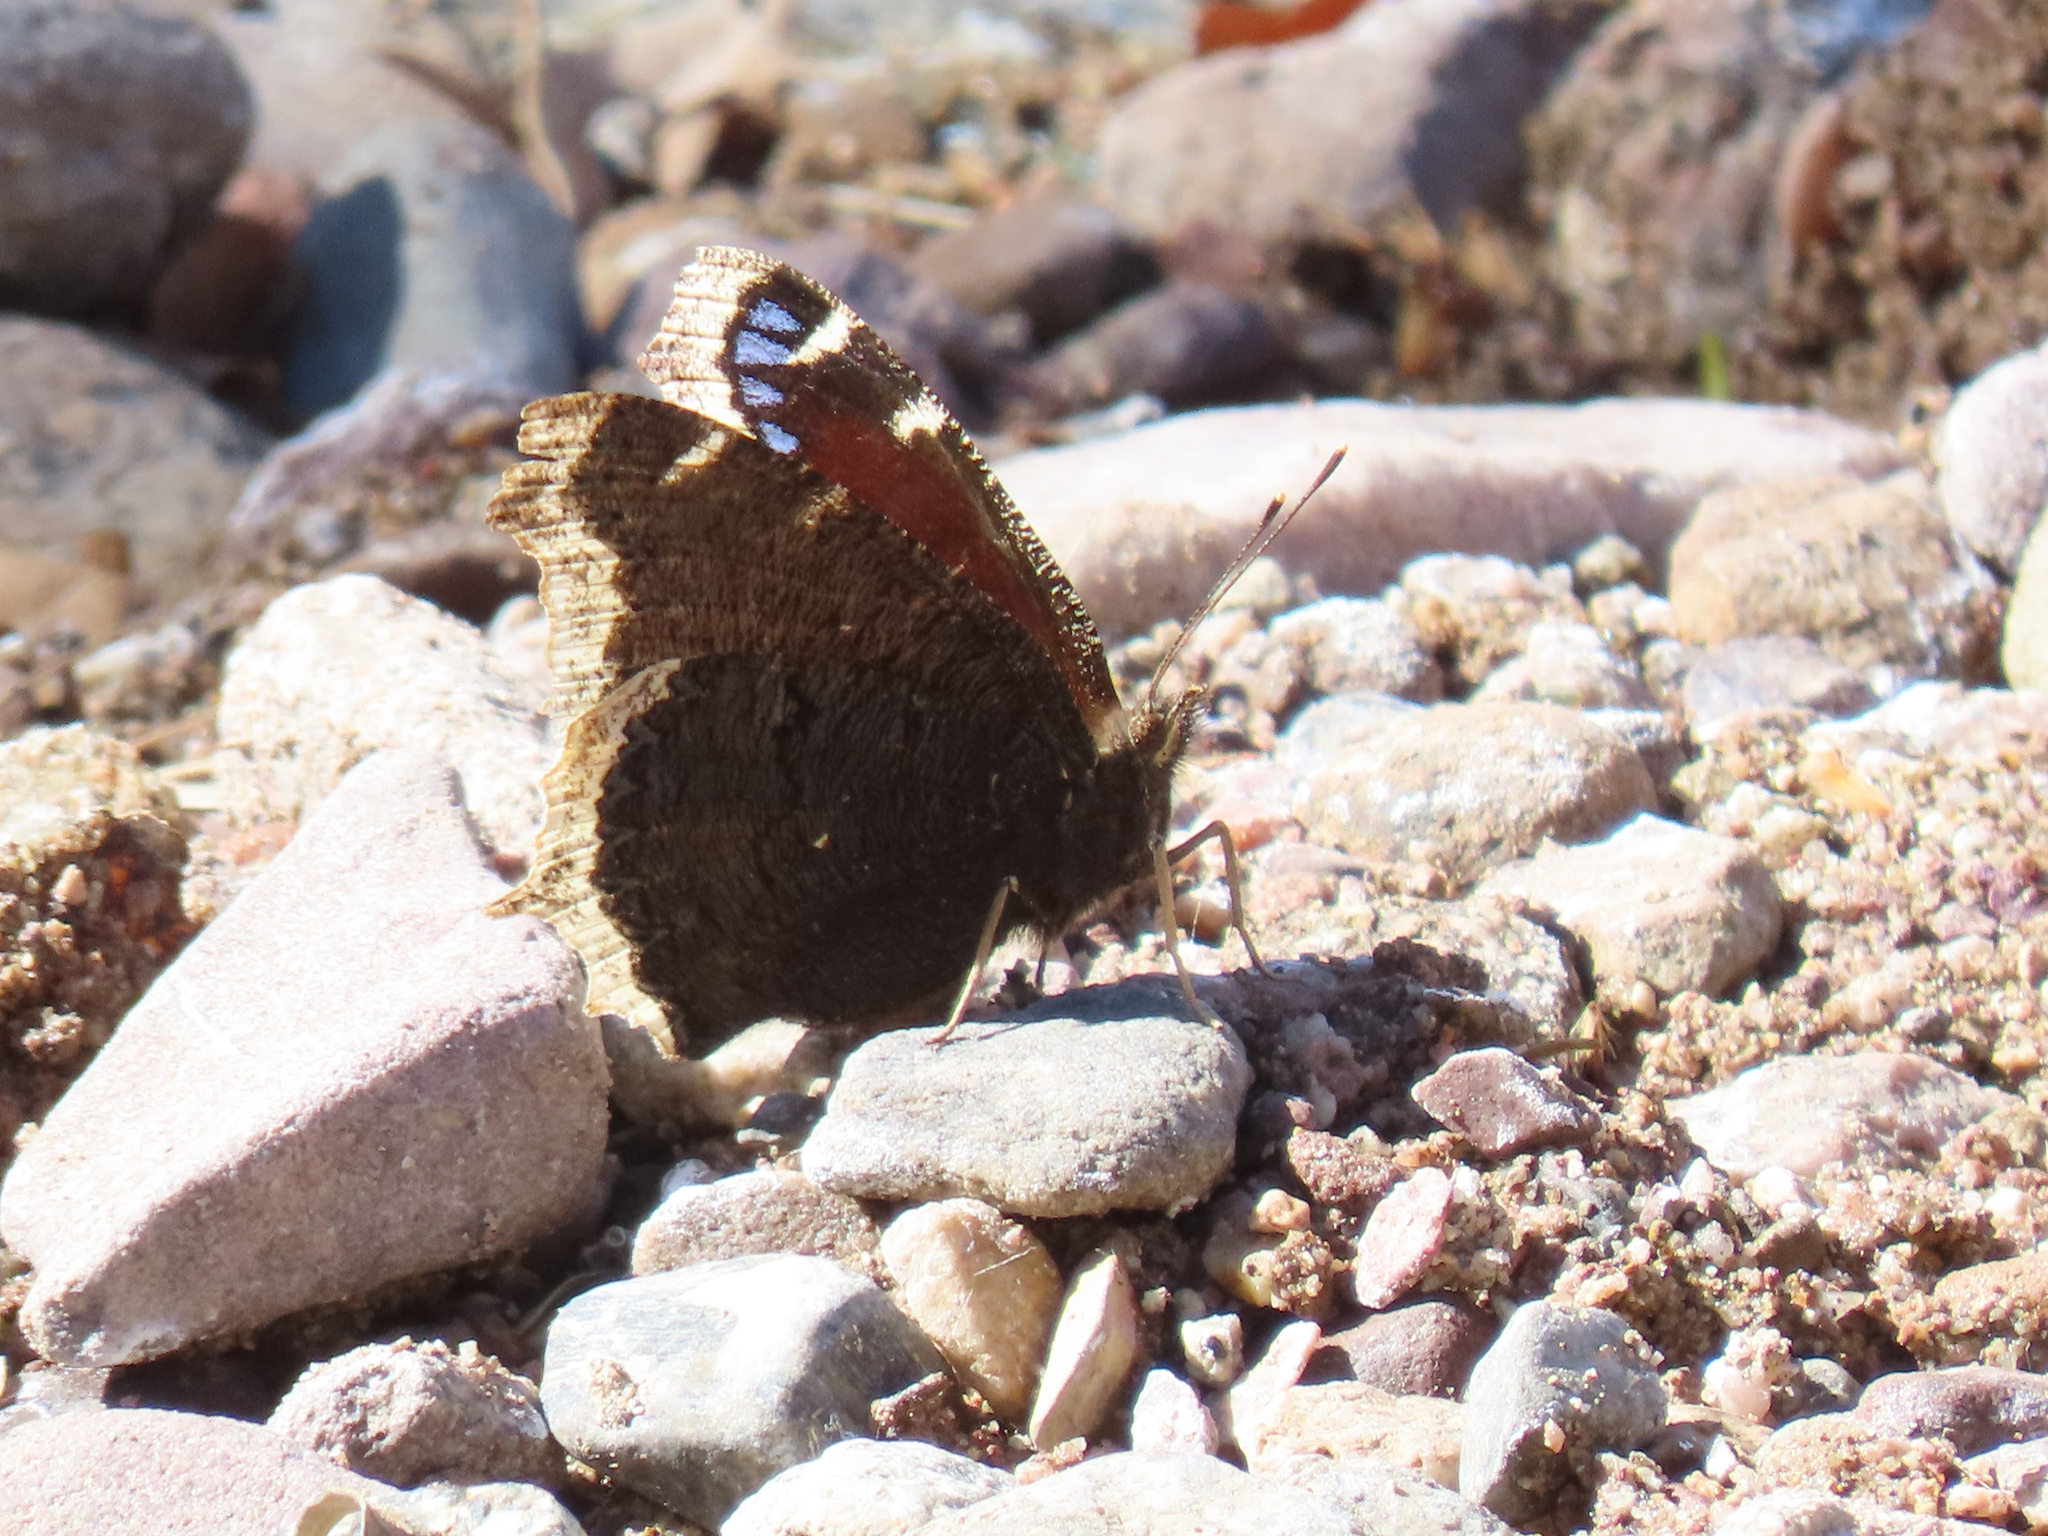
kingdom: Animalia
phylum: Arthropoda
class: Insecta
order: Lepidoptera
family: Nymphalidae
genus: Nymphalis
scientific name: Nymphalis antiopa
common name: Camberwell beauty
